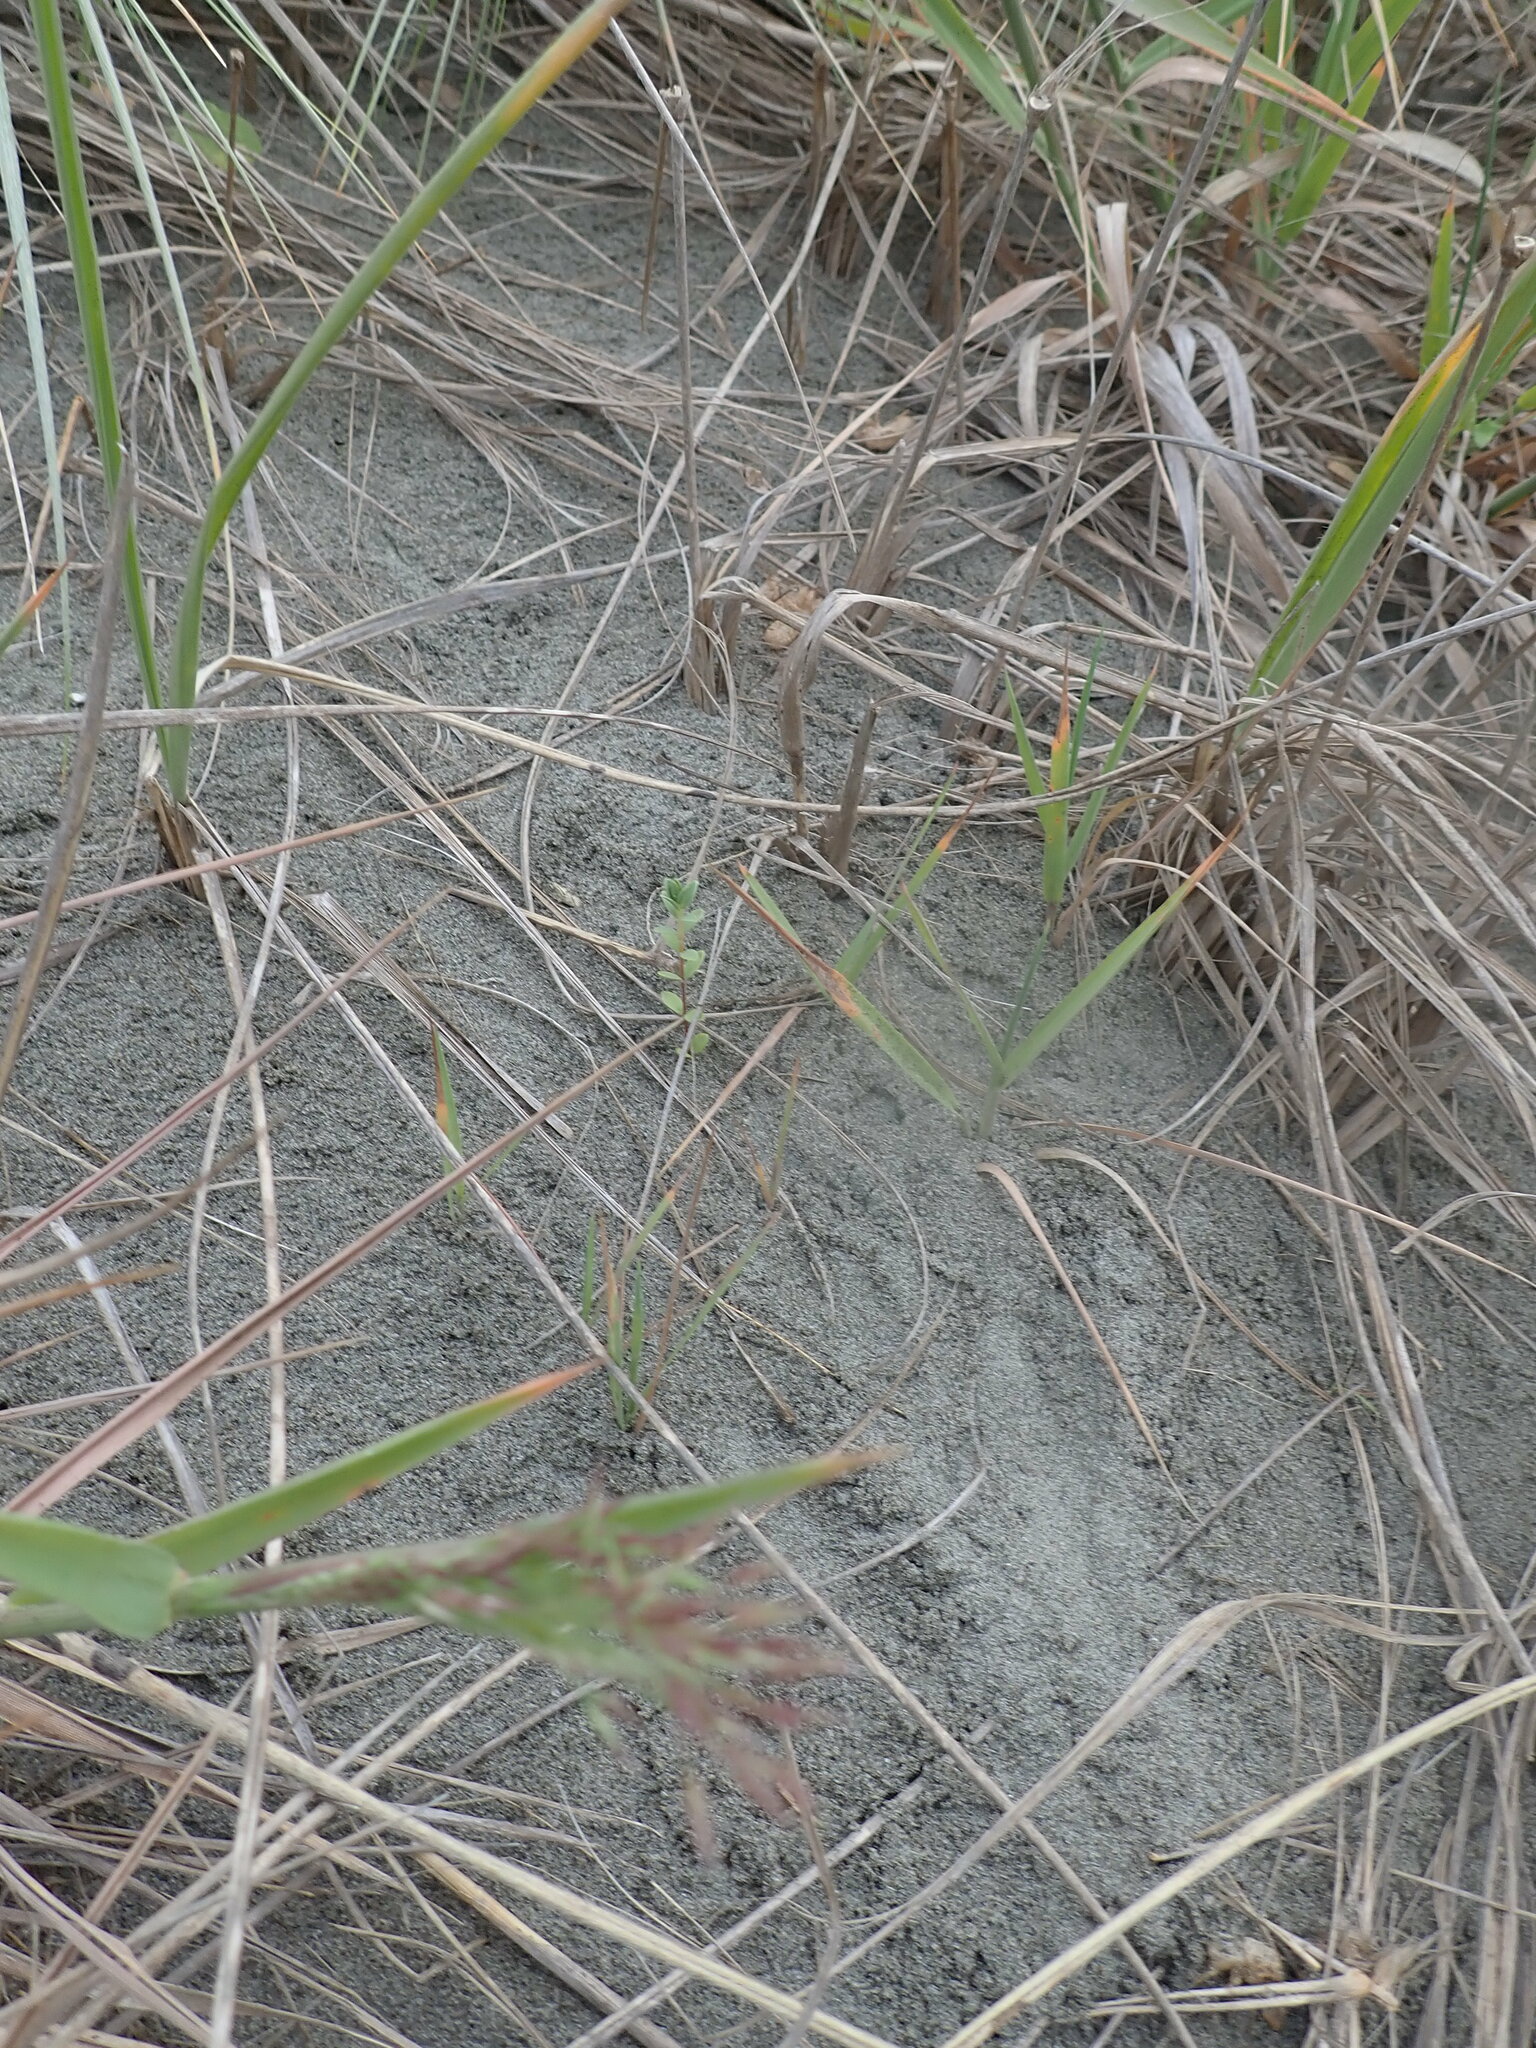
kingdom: Plantae
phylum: Tracheophyta
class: Magnoliopsida
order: Malvales
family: Thymelaeaceae
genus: Pimelea
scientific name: Pimelea villosa
